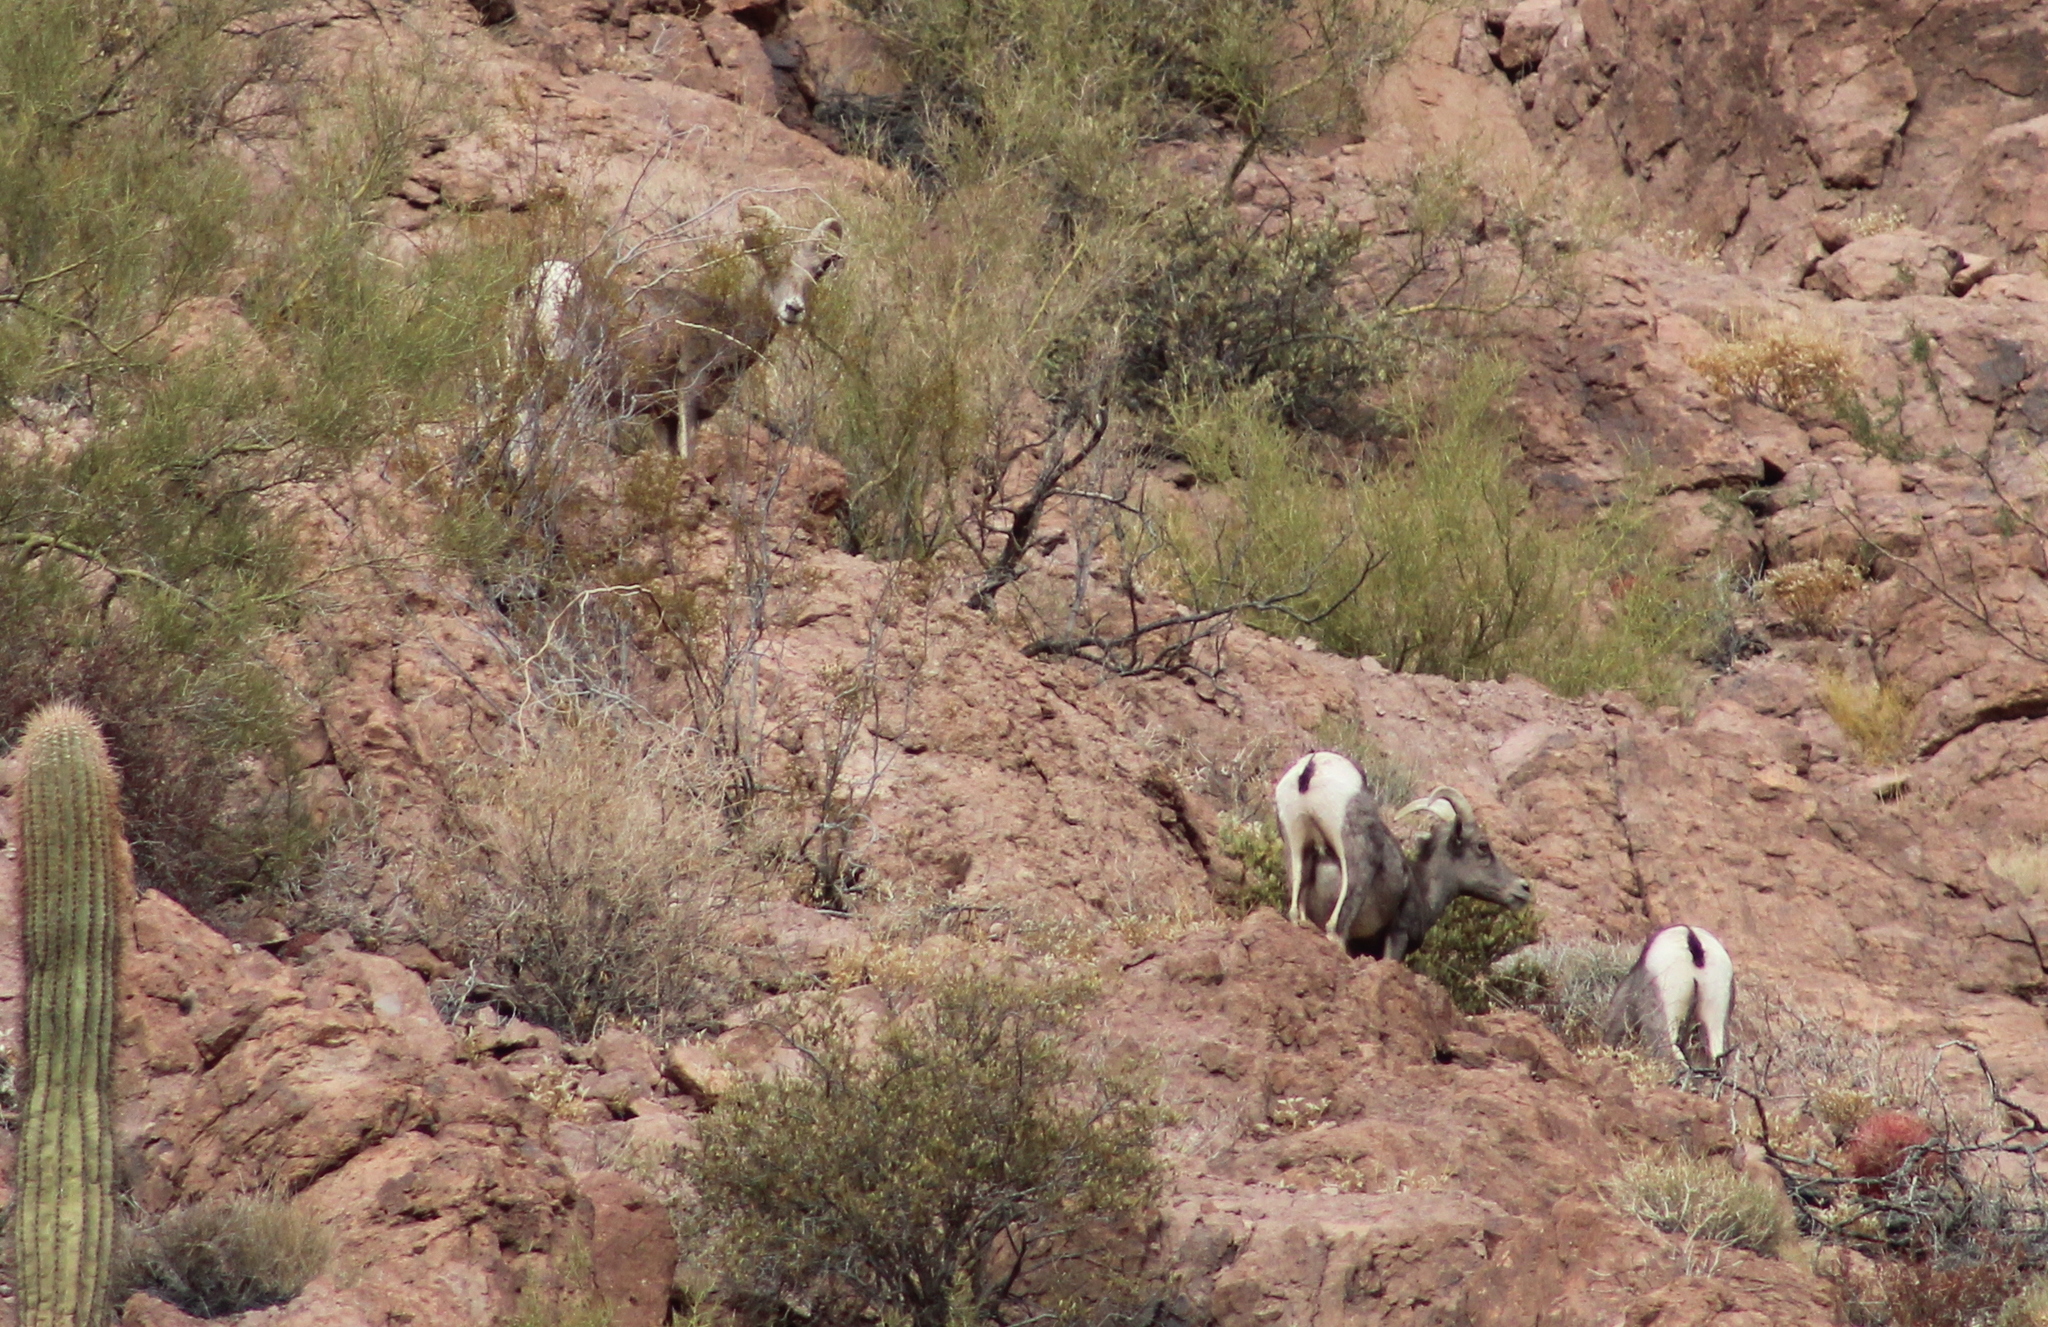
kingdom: Animalia
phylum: Chordata
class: Mammalia
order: Artiodactyla
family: Bovidae
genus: Ovis
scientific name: Ovis canadensis
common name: Bighorn sheep
